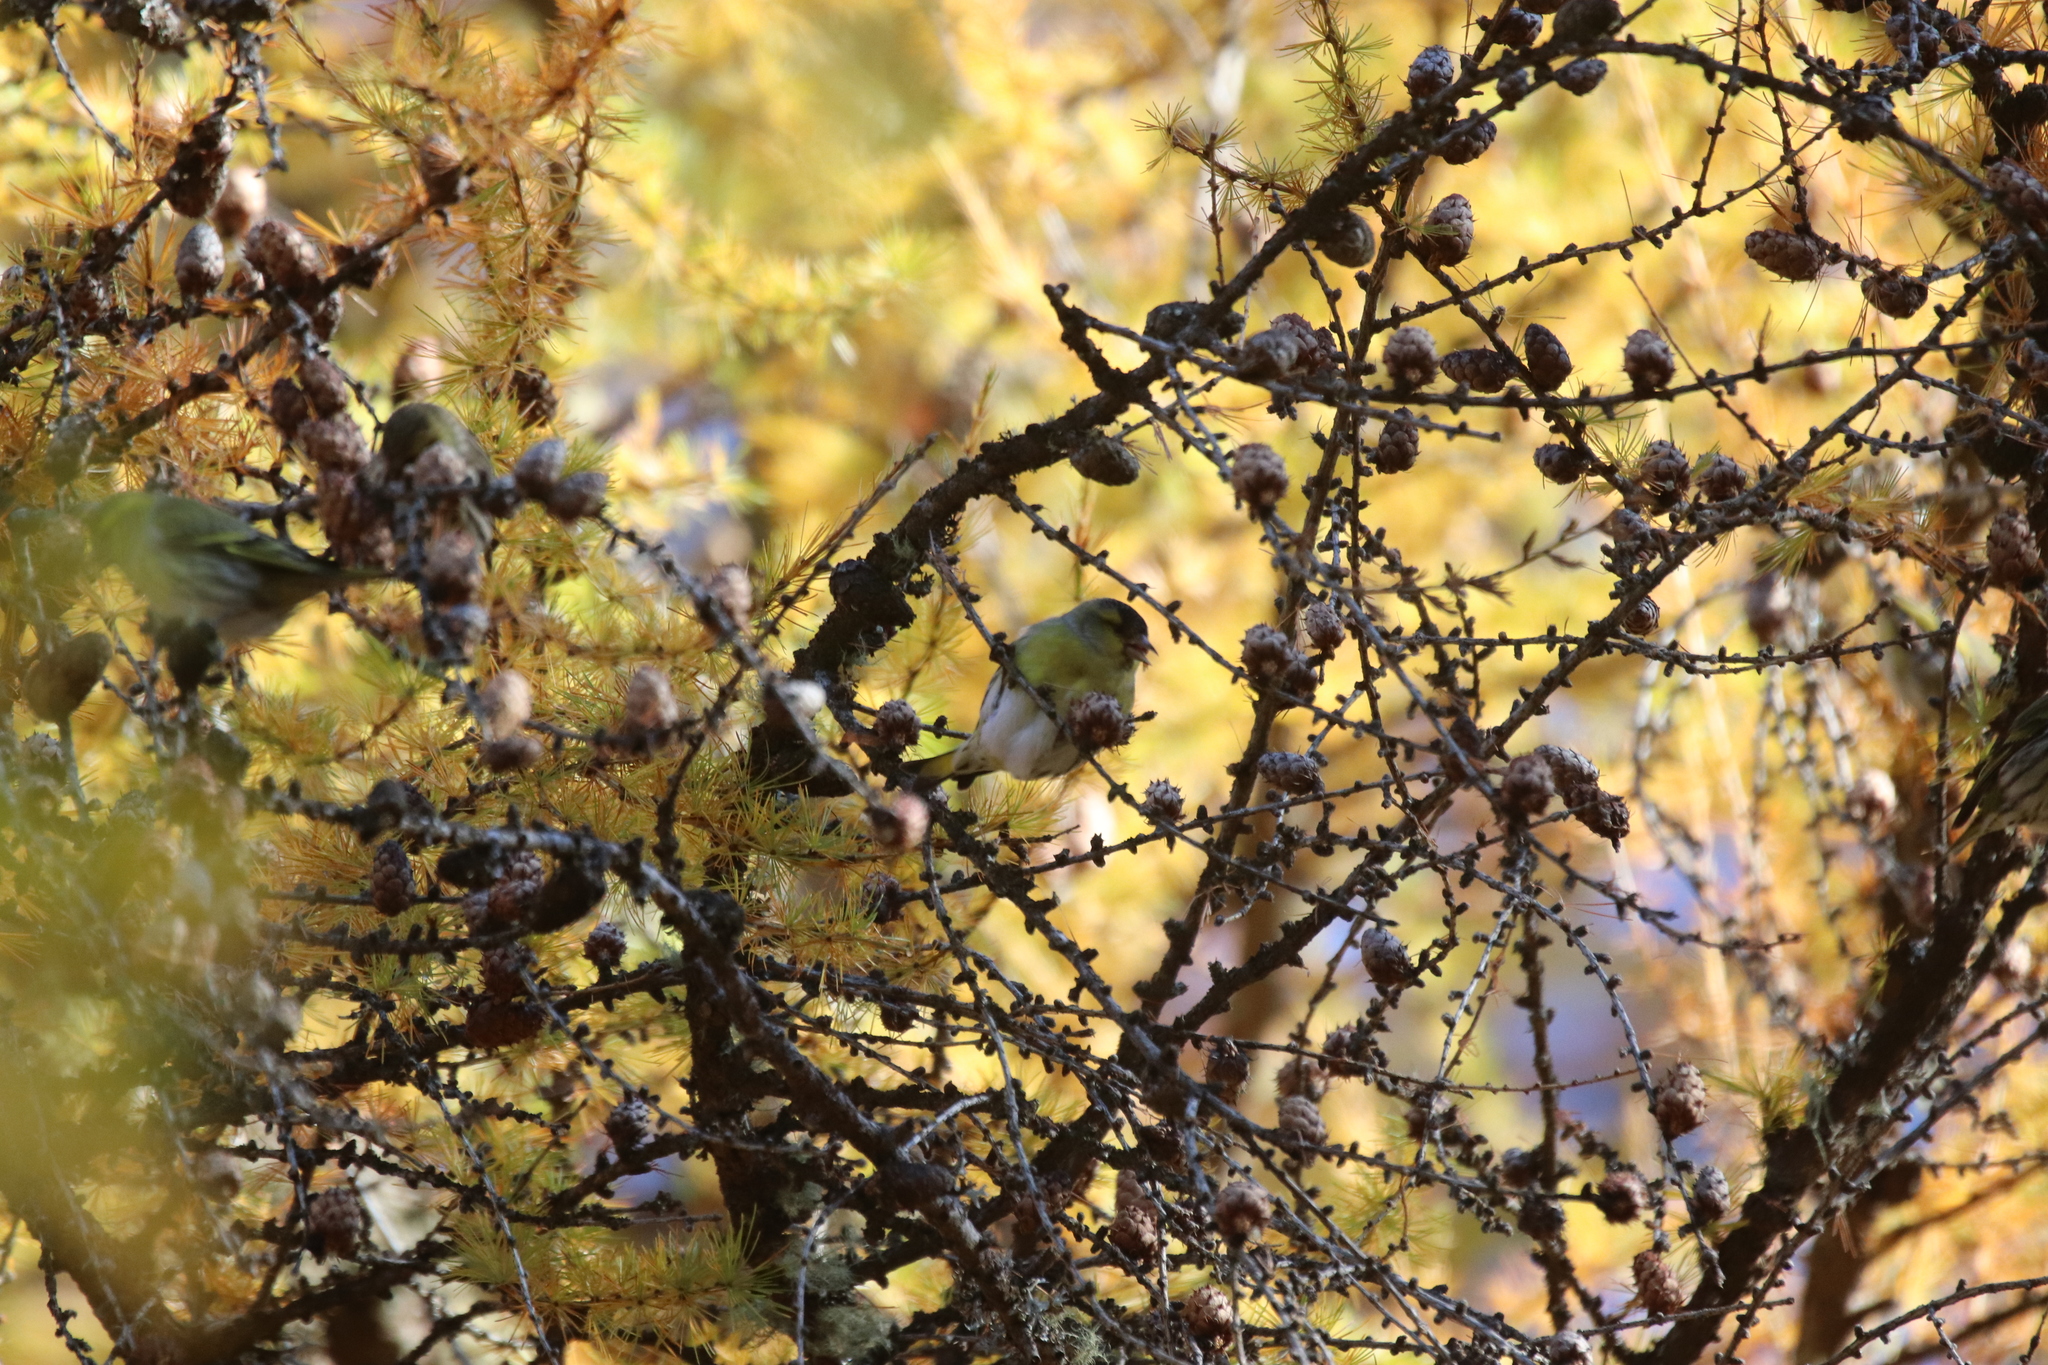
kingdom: Animalia
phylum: Chordata
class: Aves
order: Passeriformes
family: Fringillidae
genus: Spinus
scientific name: Spinus spinus
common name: Eurasian siskin
